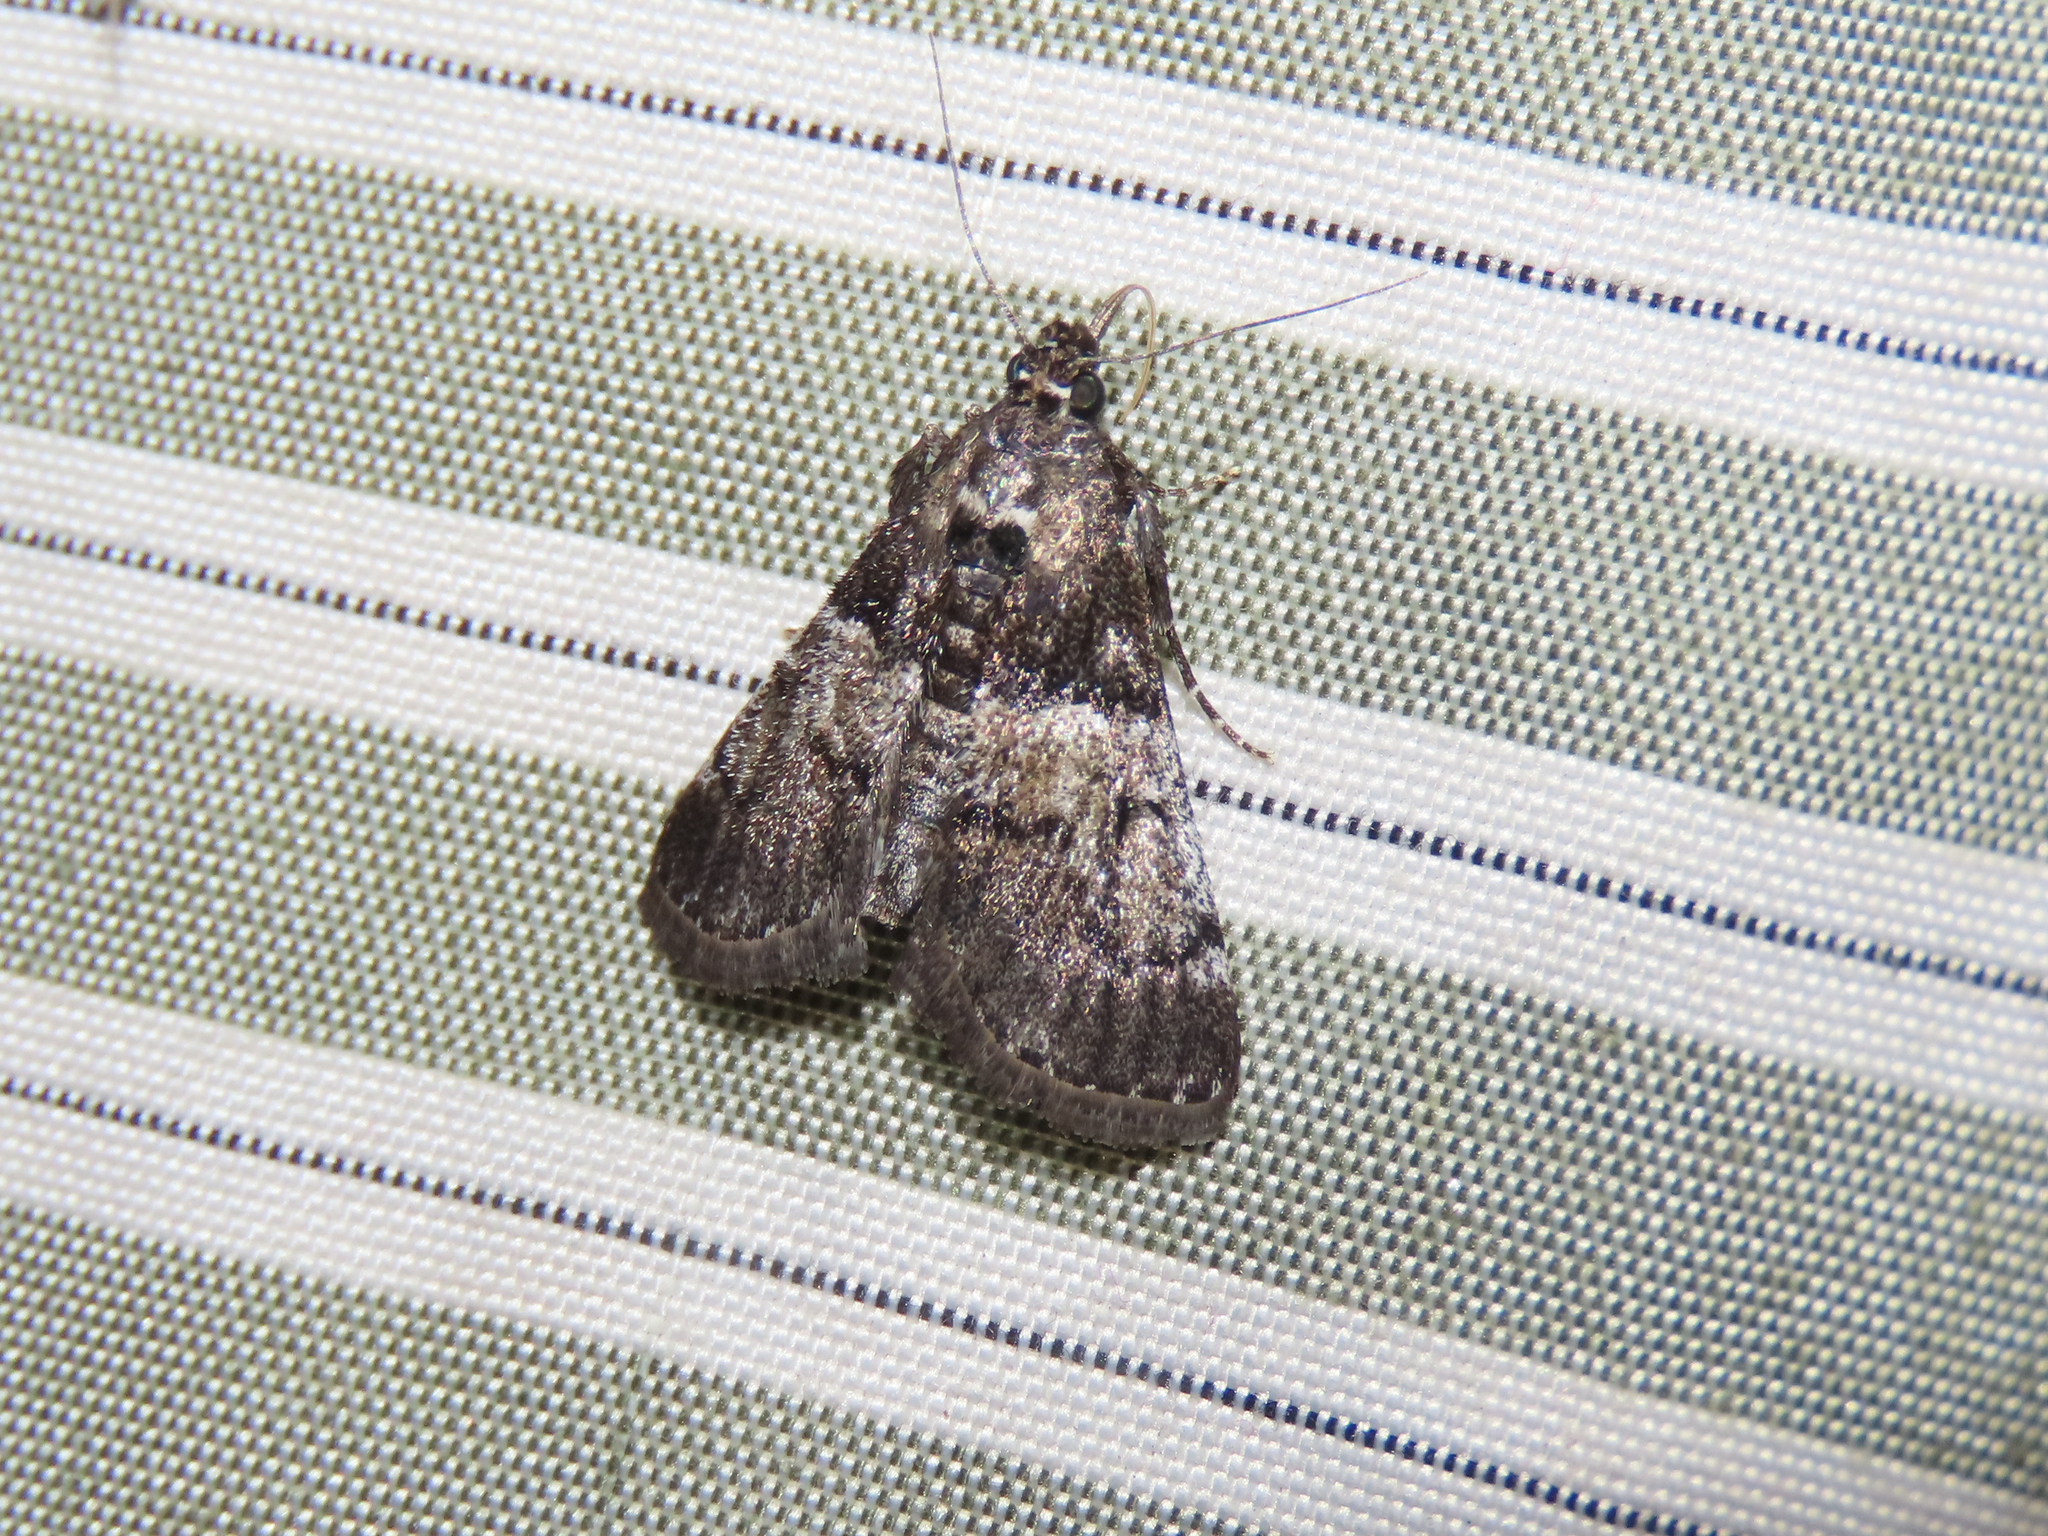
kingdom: Animalia
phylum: Arthropoda
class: Insecta
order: Lepidoptera
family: Pyralidae
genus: Macalla
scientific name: Macalla zelleri
